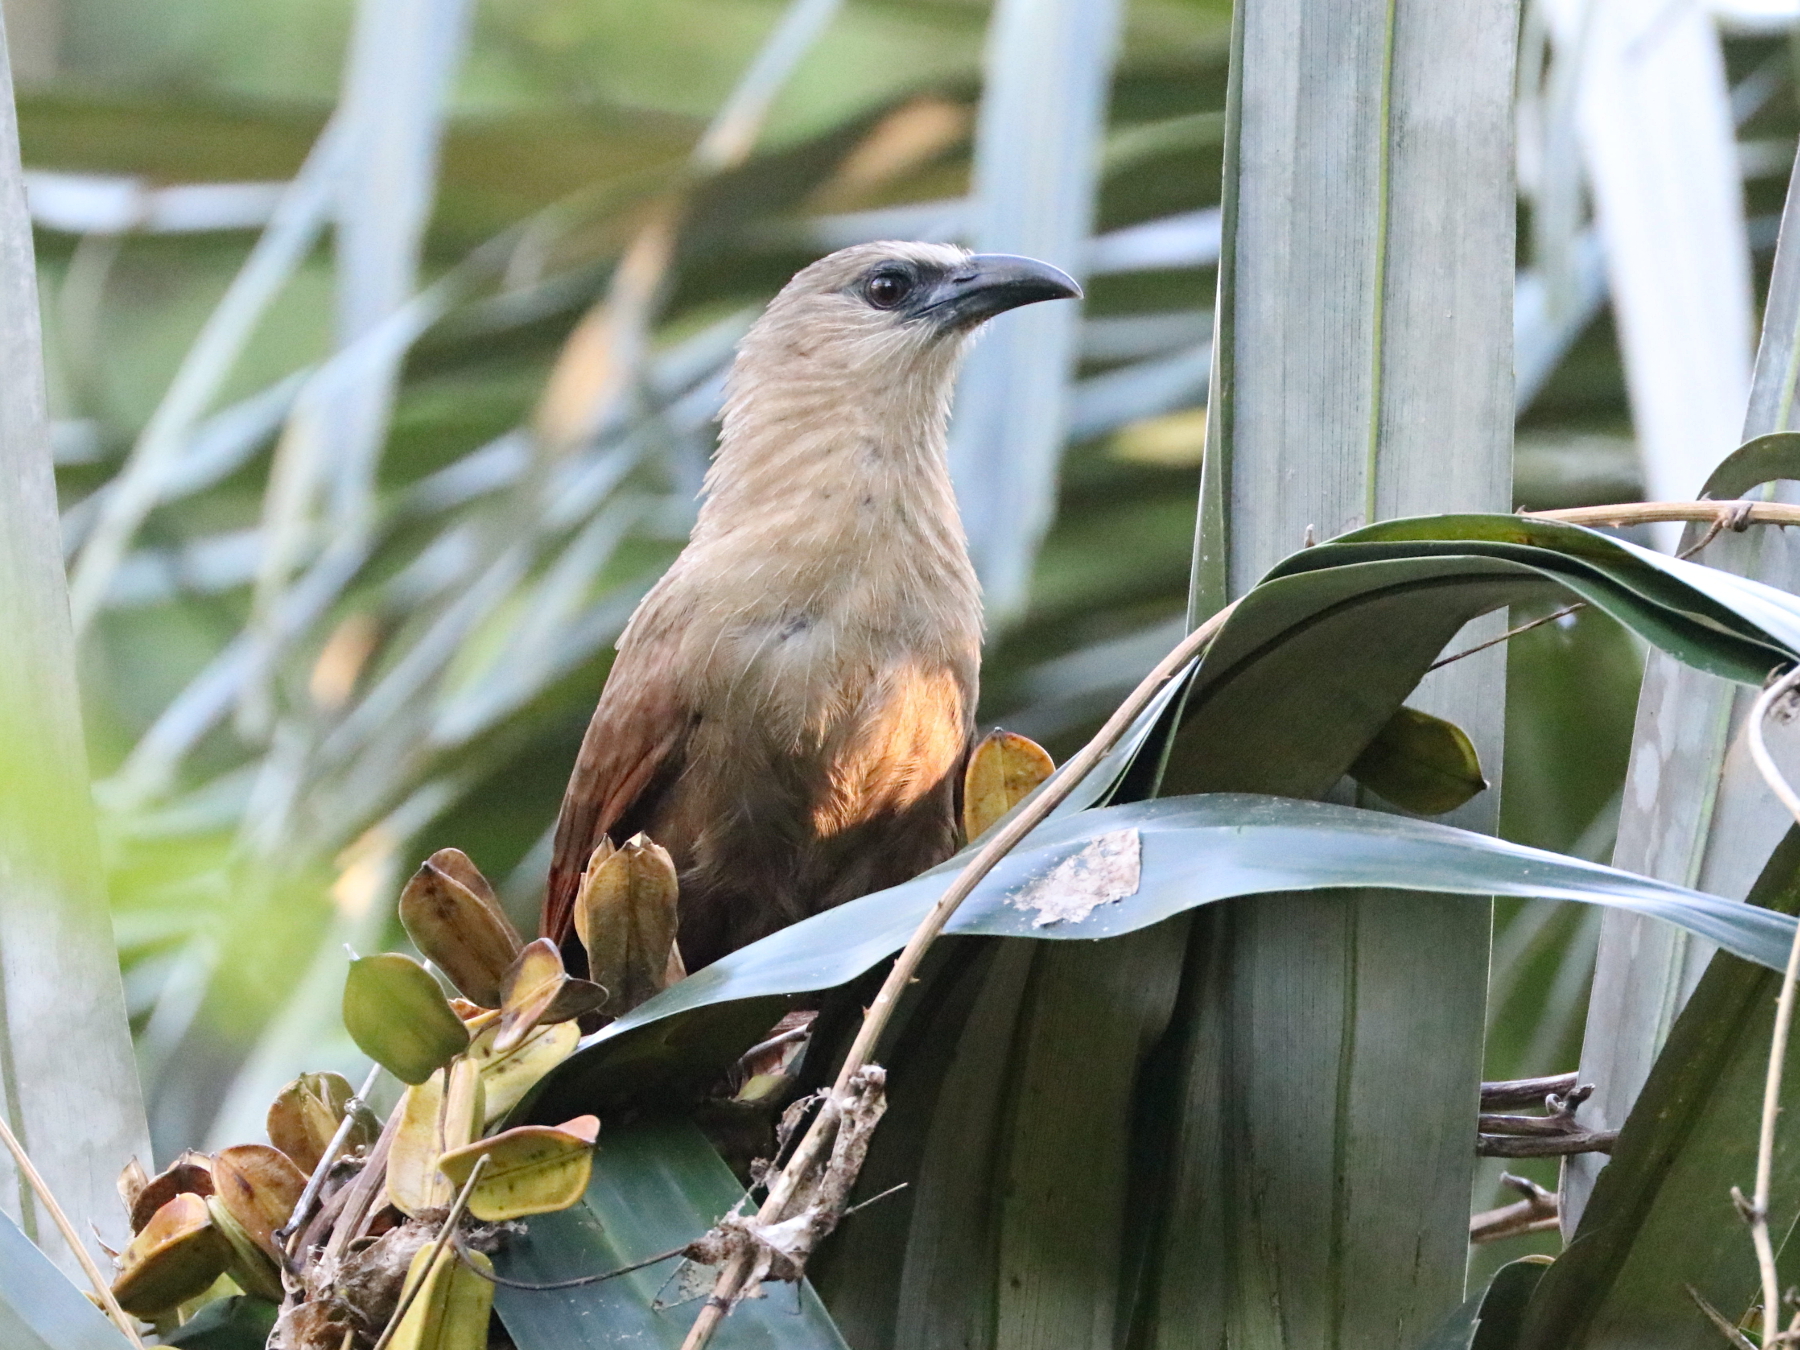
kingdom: Animalia
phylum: Chordata
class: Aves
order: Cuculiformes
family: Cuculidae
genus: Centropus
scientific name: Centropus celebensis
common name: Bay coucal
